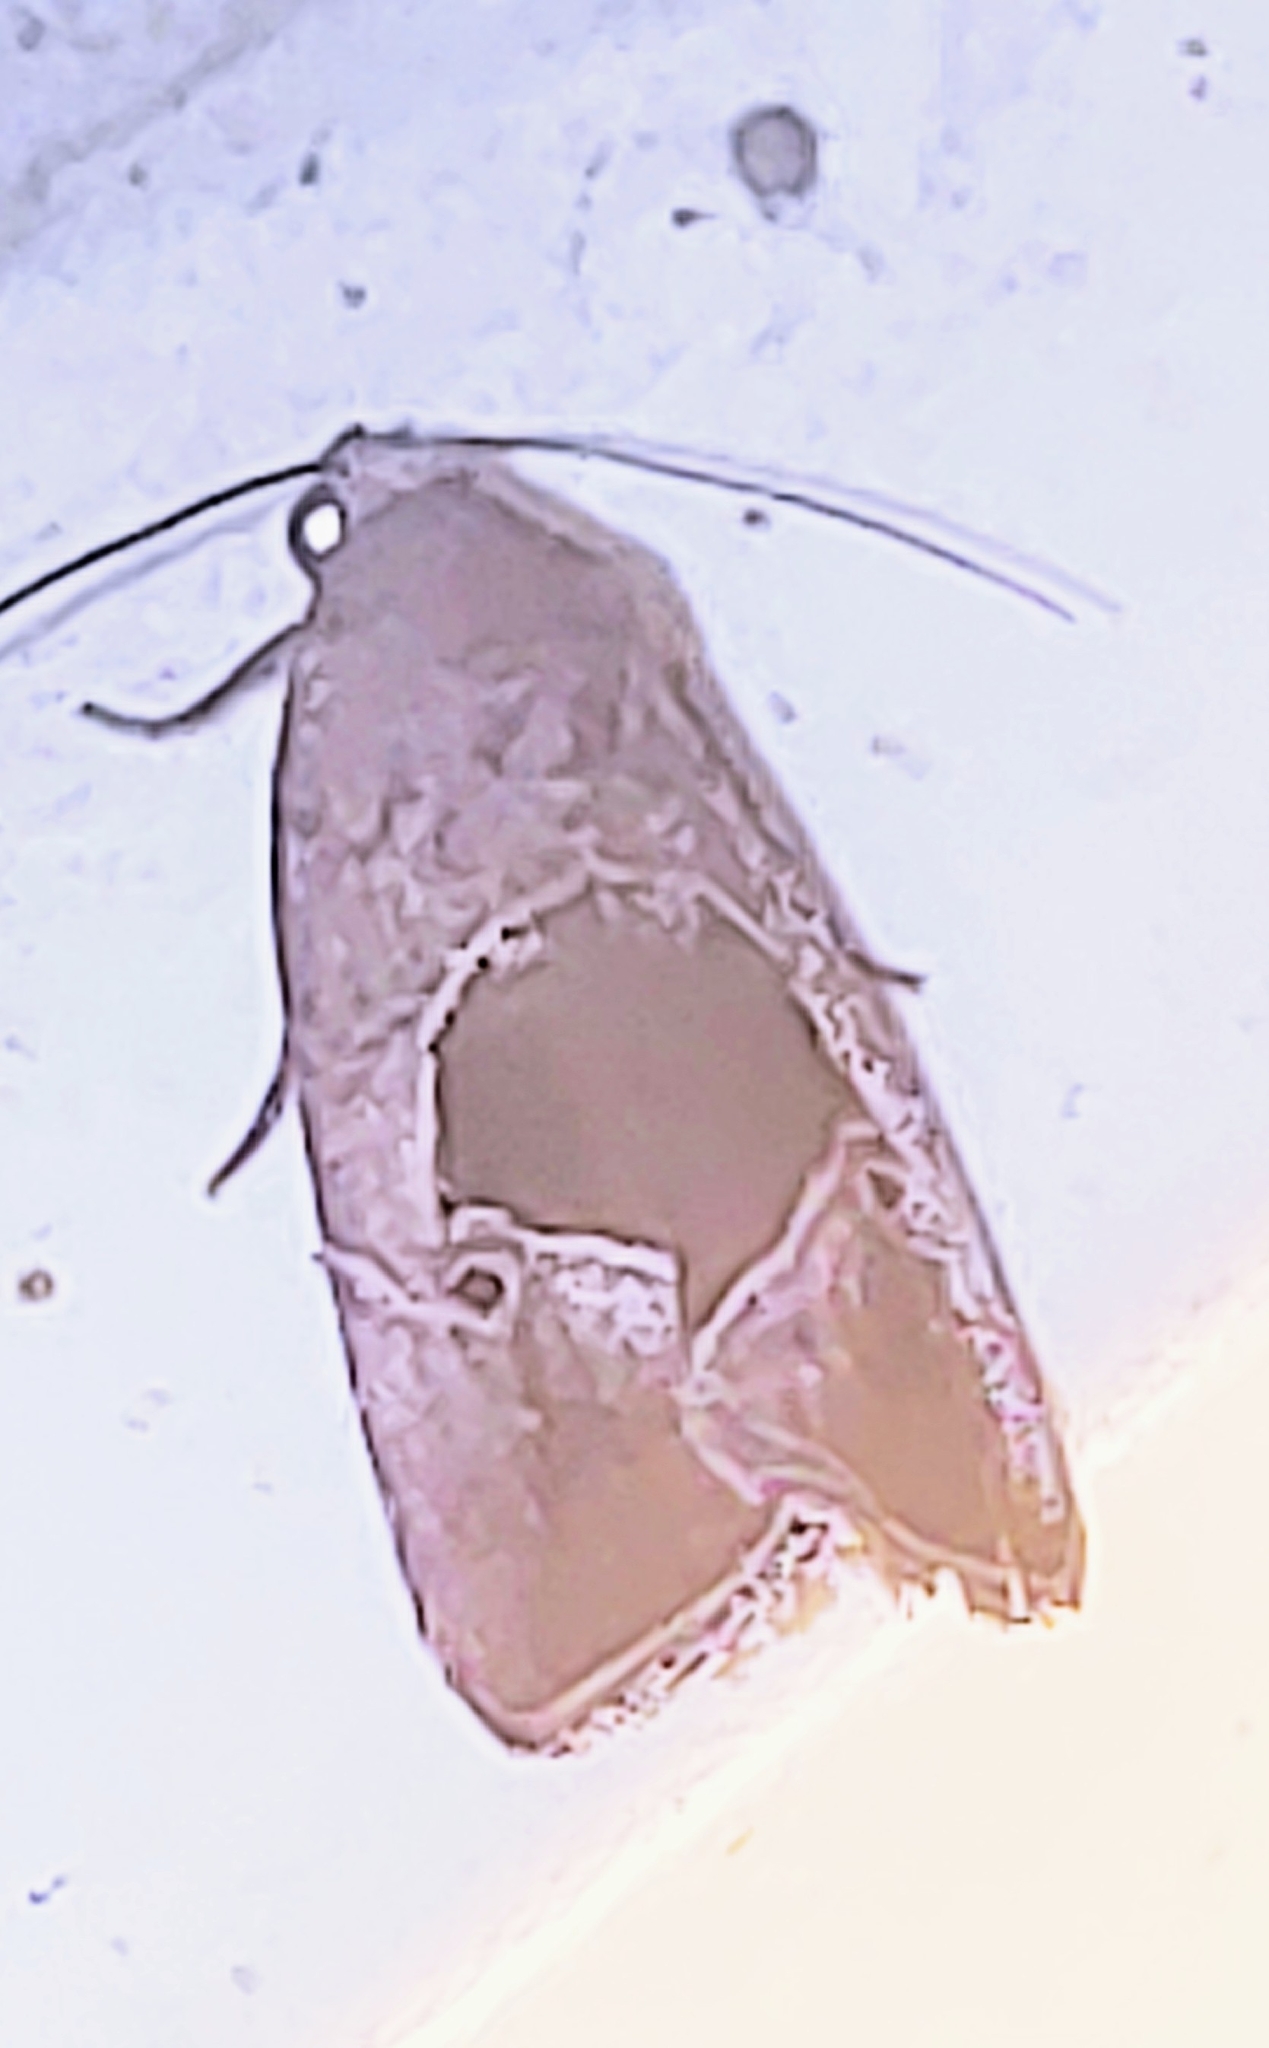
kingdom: Animalia
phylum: Arthropoda
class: Insecta
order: Lepidoptera
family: Noctuidae
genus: Elaphria
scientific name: Elaphria nucicolora
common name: Sugarcane midget moth
